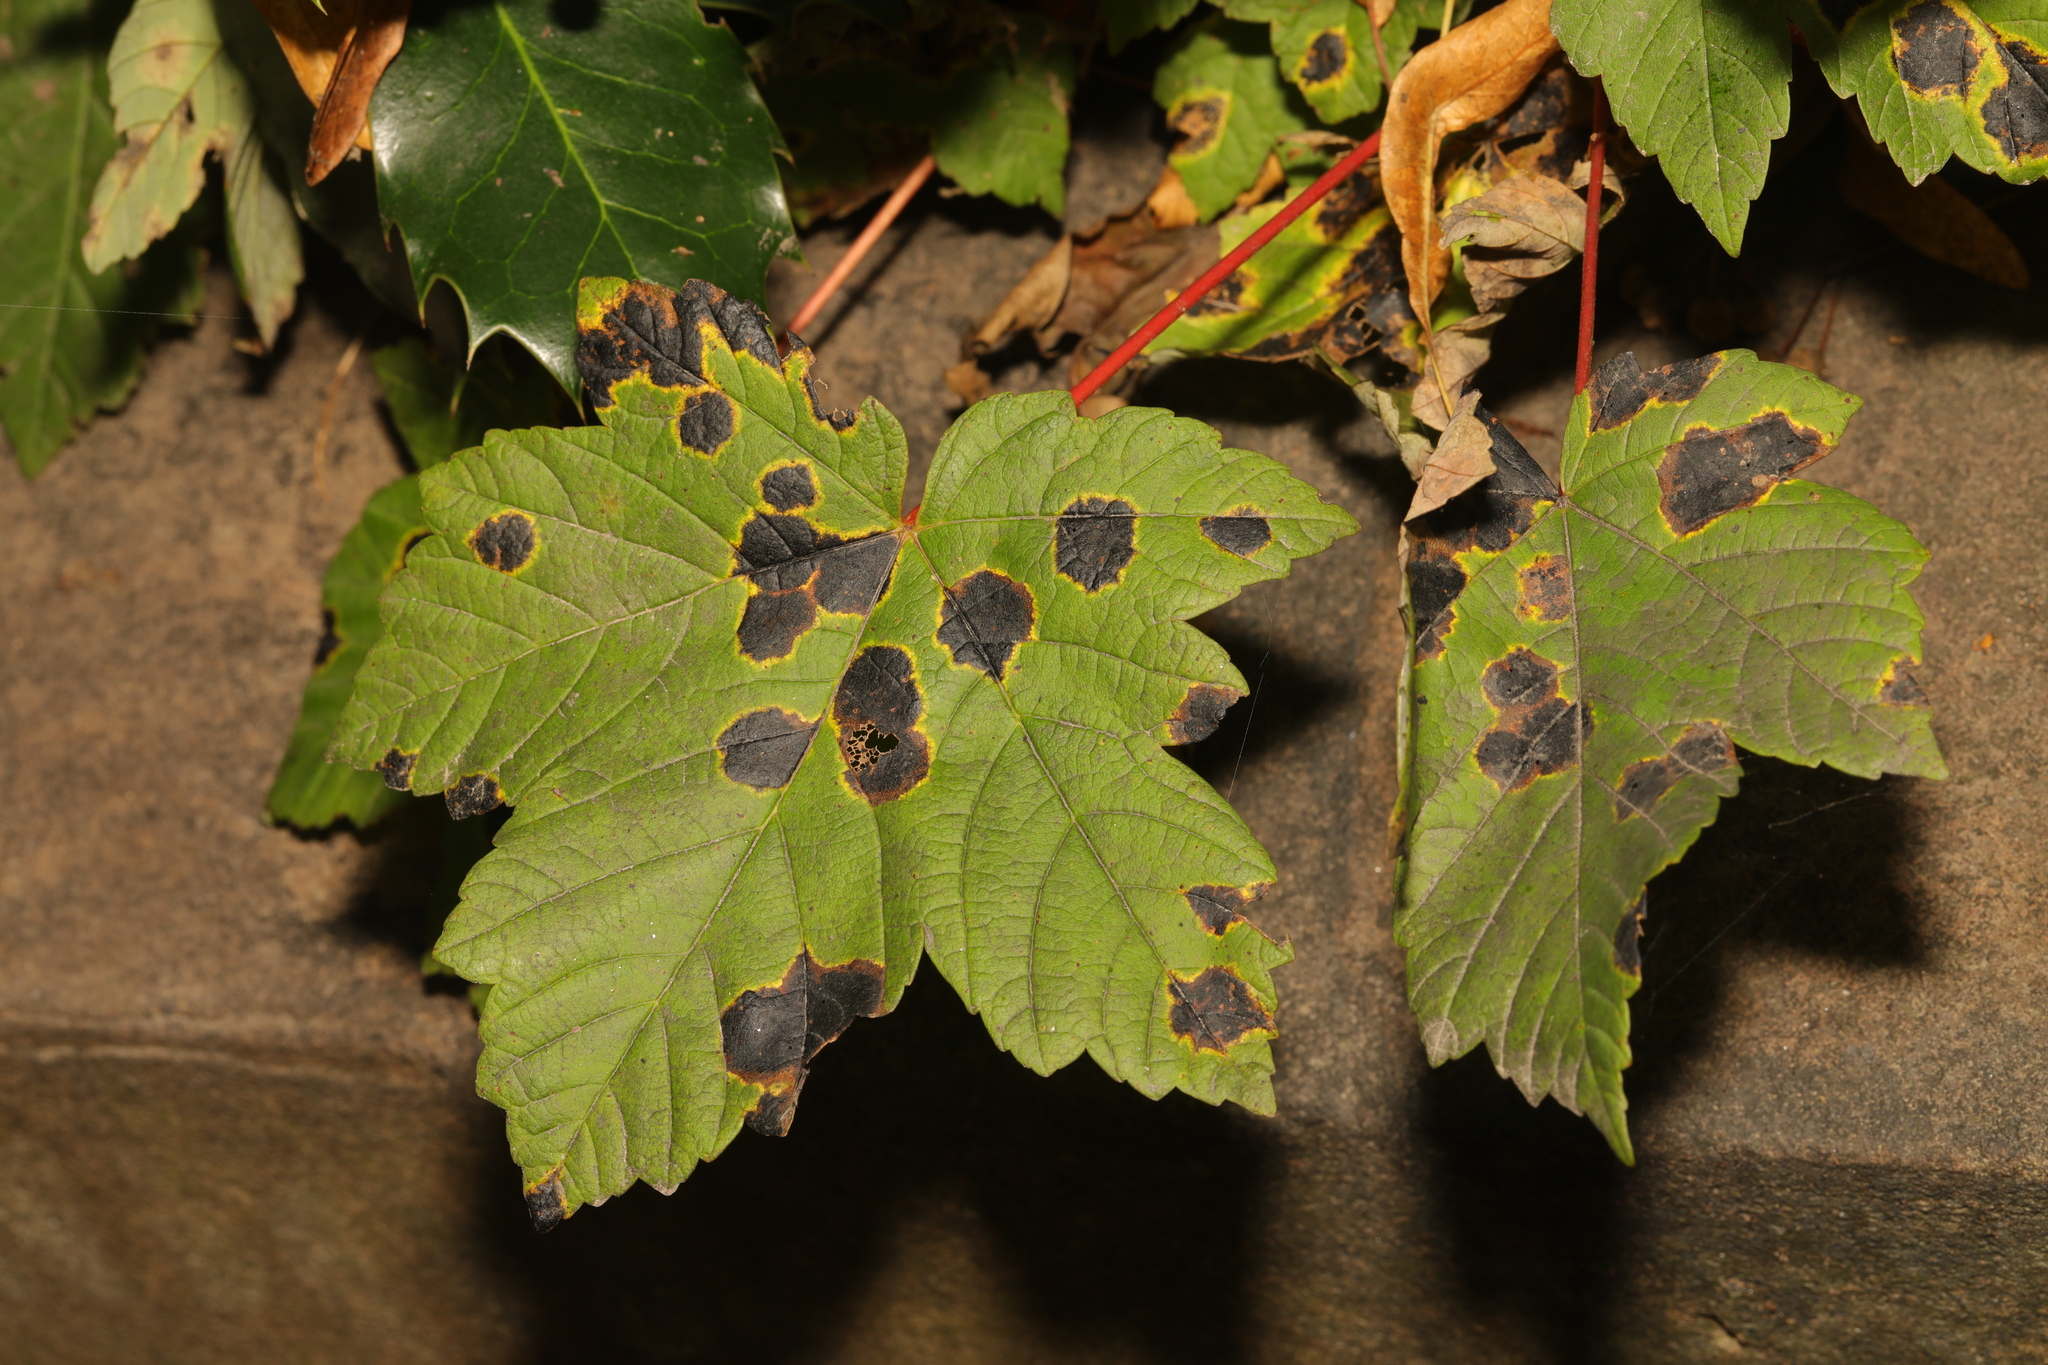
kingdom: Plantae
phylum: Tracheophyta
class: Magnoliopsida
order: Sapindales
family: Sapindaceae
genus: Acer
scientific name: Acer pseudoplatanus
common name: Sycamore
